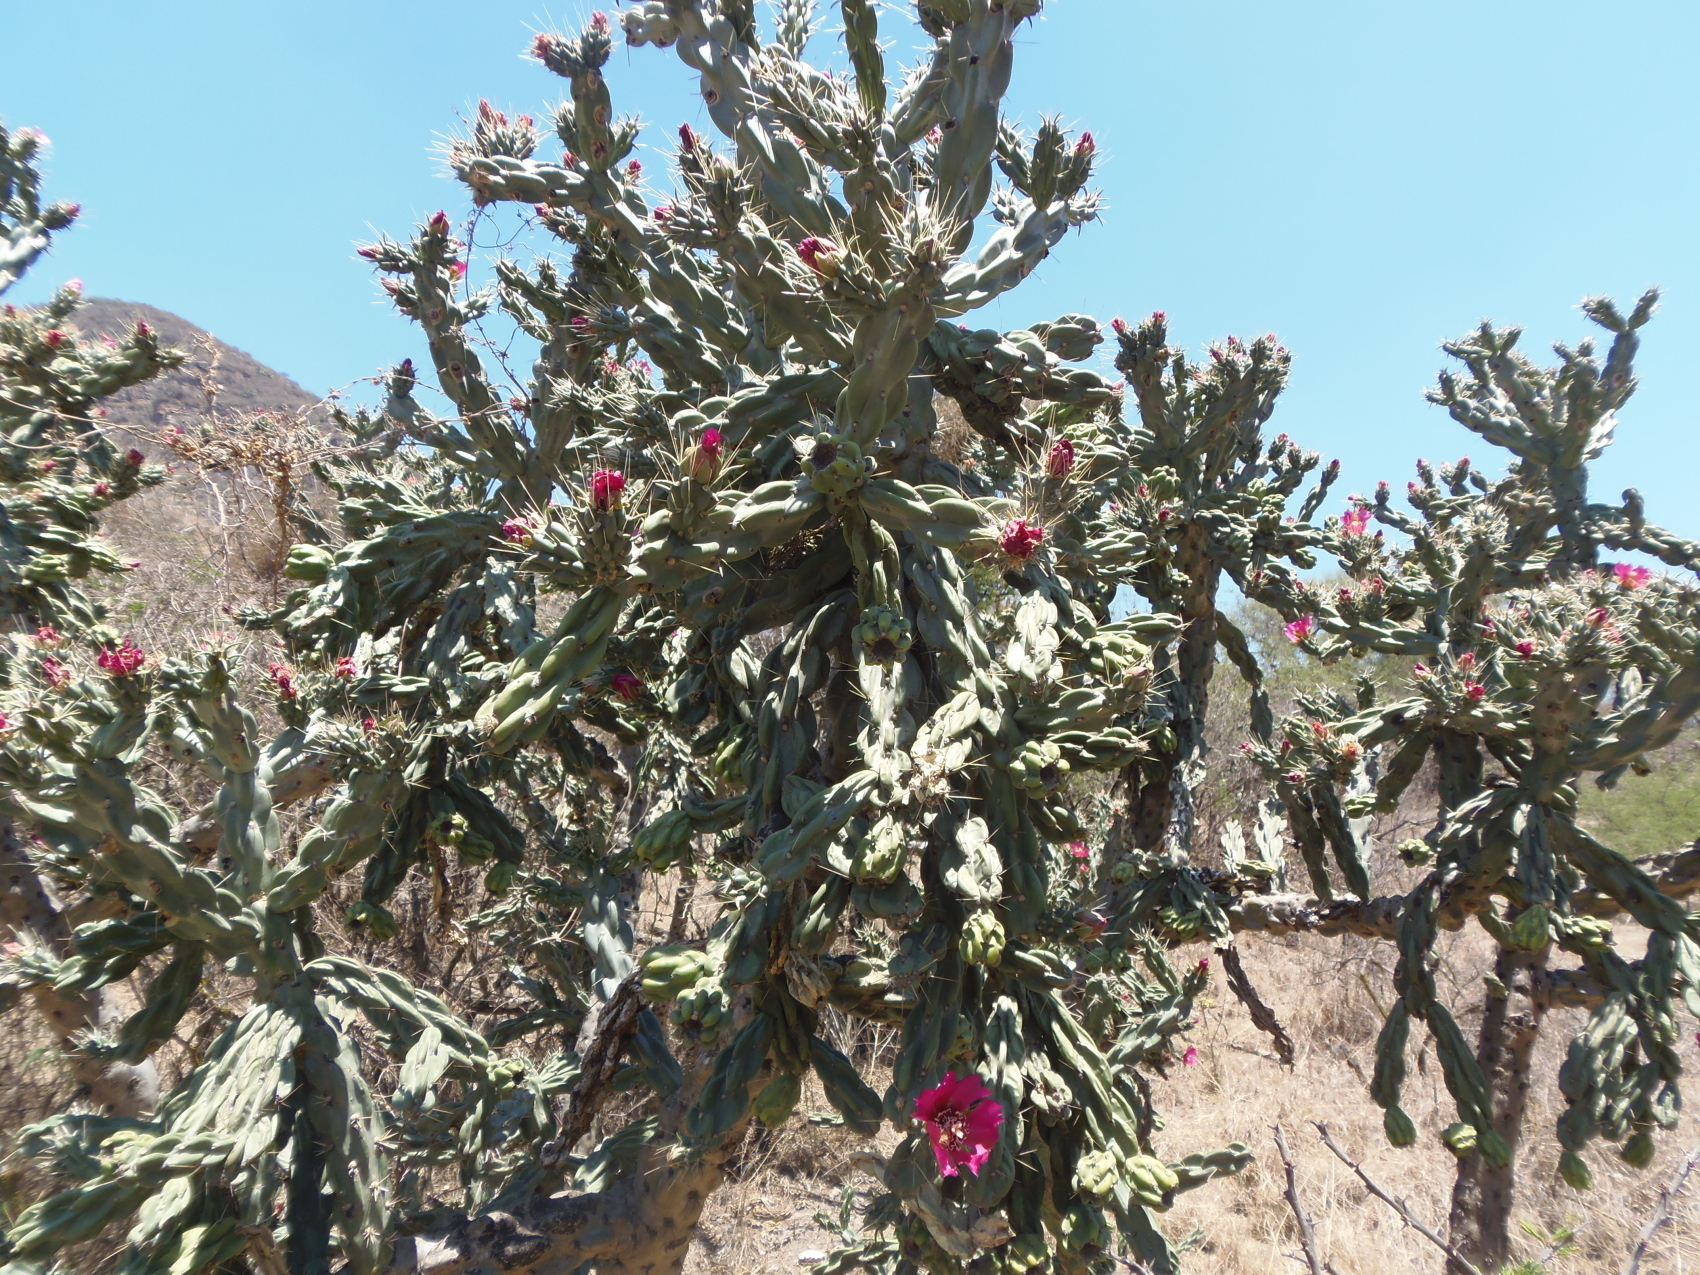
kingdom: Plantae
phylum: Tracheophyta
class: Magnoliopsida
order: Caryophyllales
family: Cactaceae
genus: Cylindropuntia
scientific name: Cylindropuntia imbricata
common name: Candelabrum cactus
